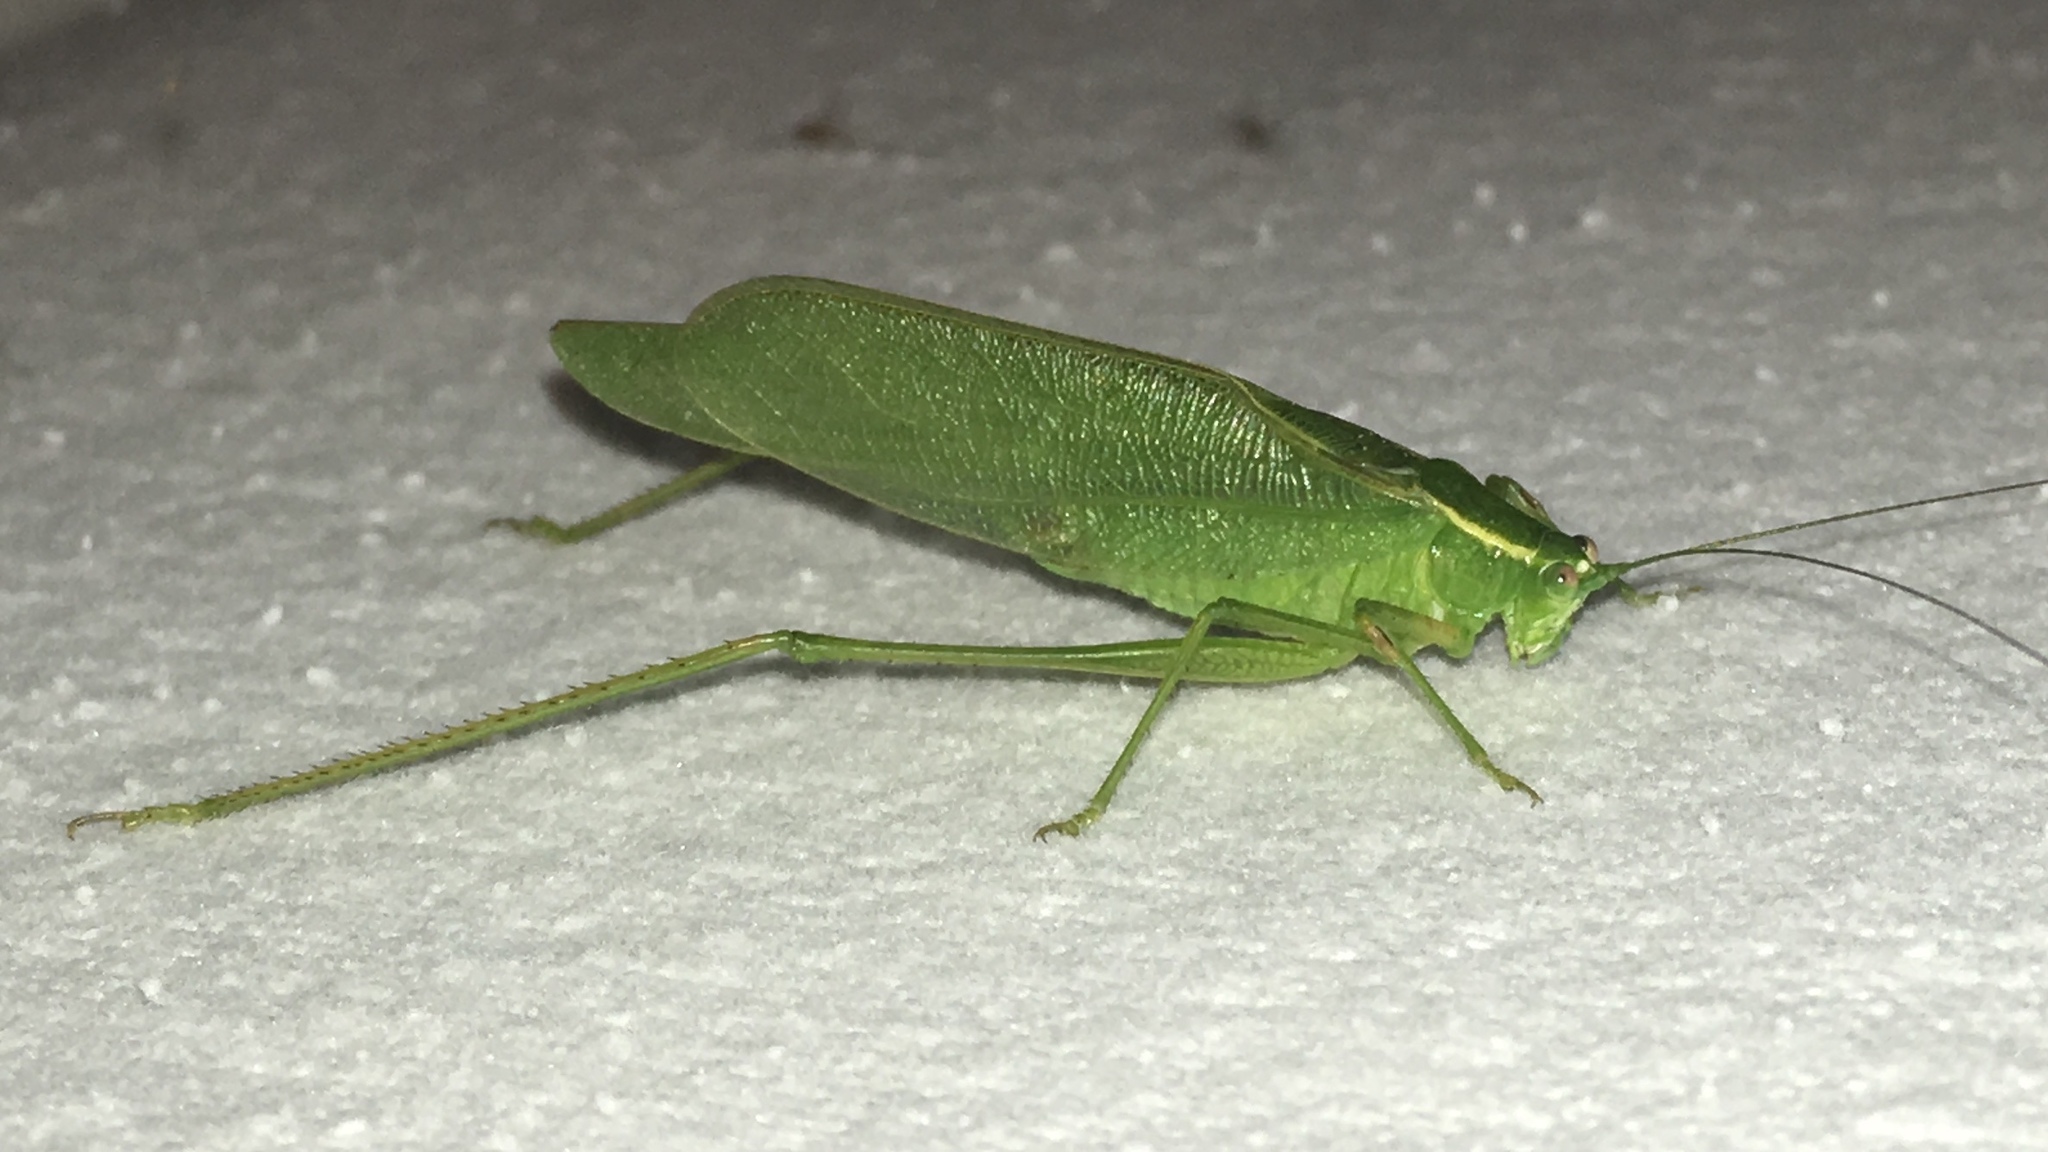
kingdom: Animalia
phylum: Arthropoda
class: Insecta
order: Orthoptera
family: Tettigoniidae
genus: Scudderia
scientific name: Scudderia septentrionalis
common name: Northern bush-katydid
